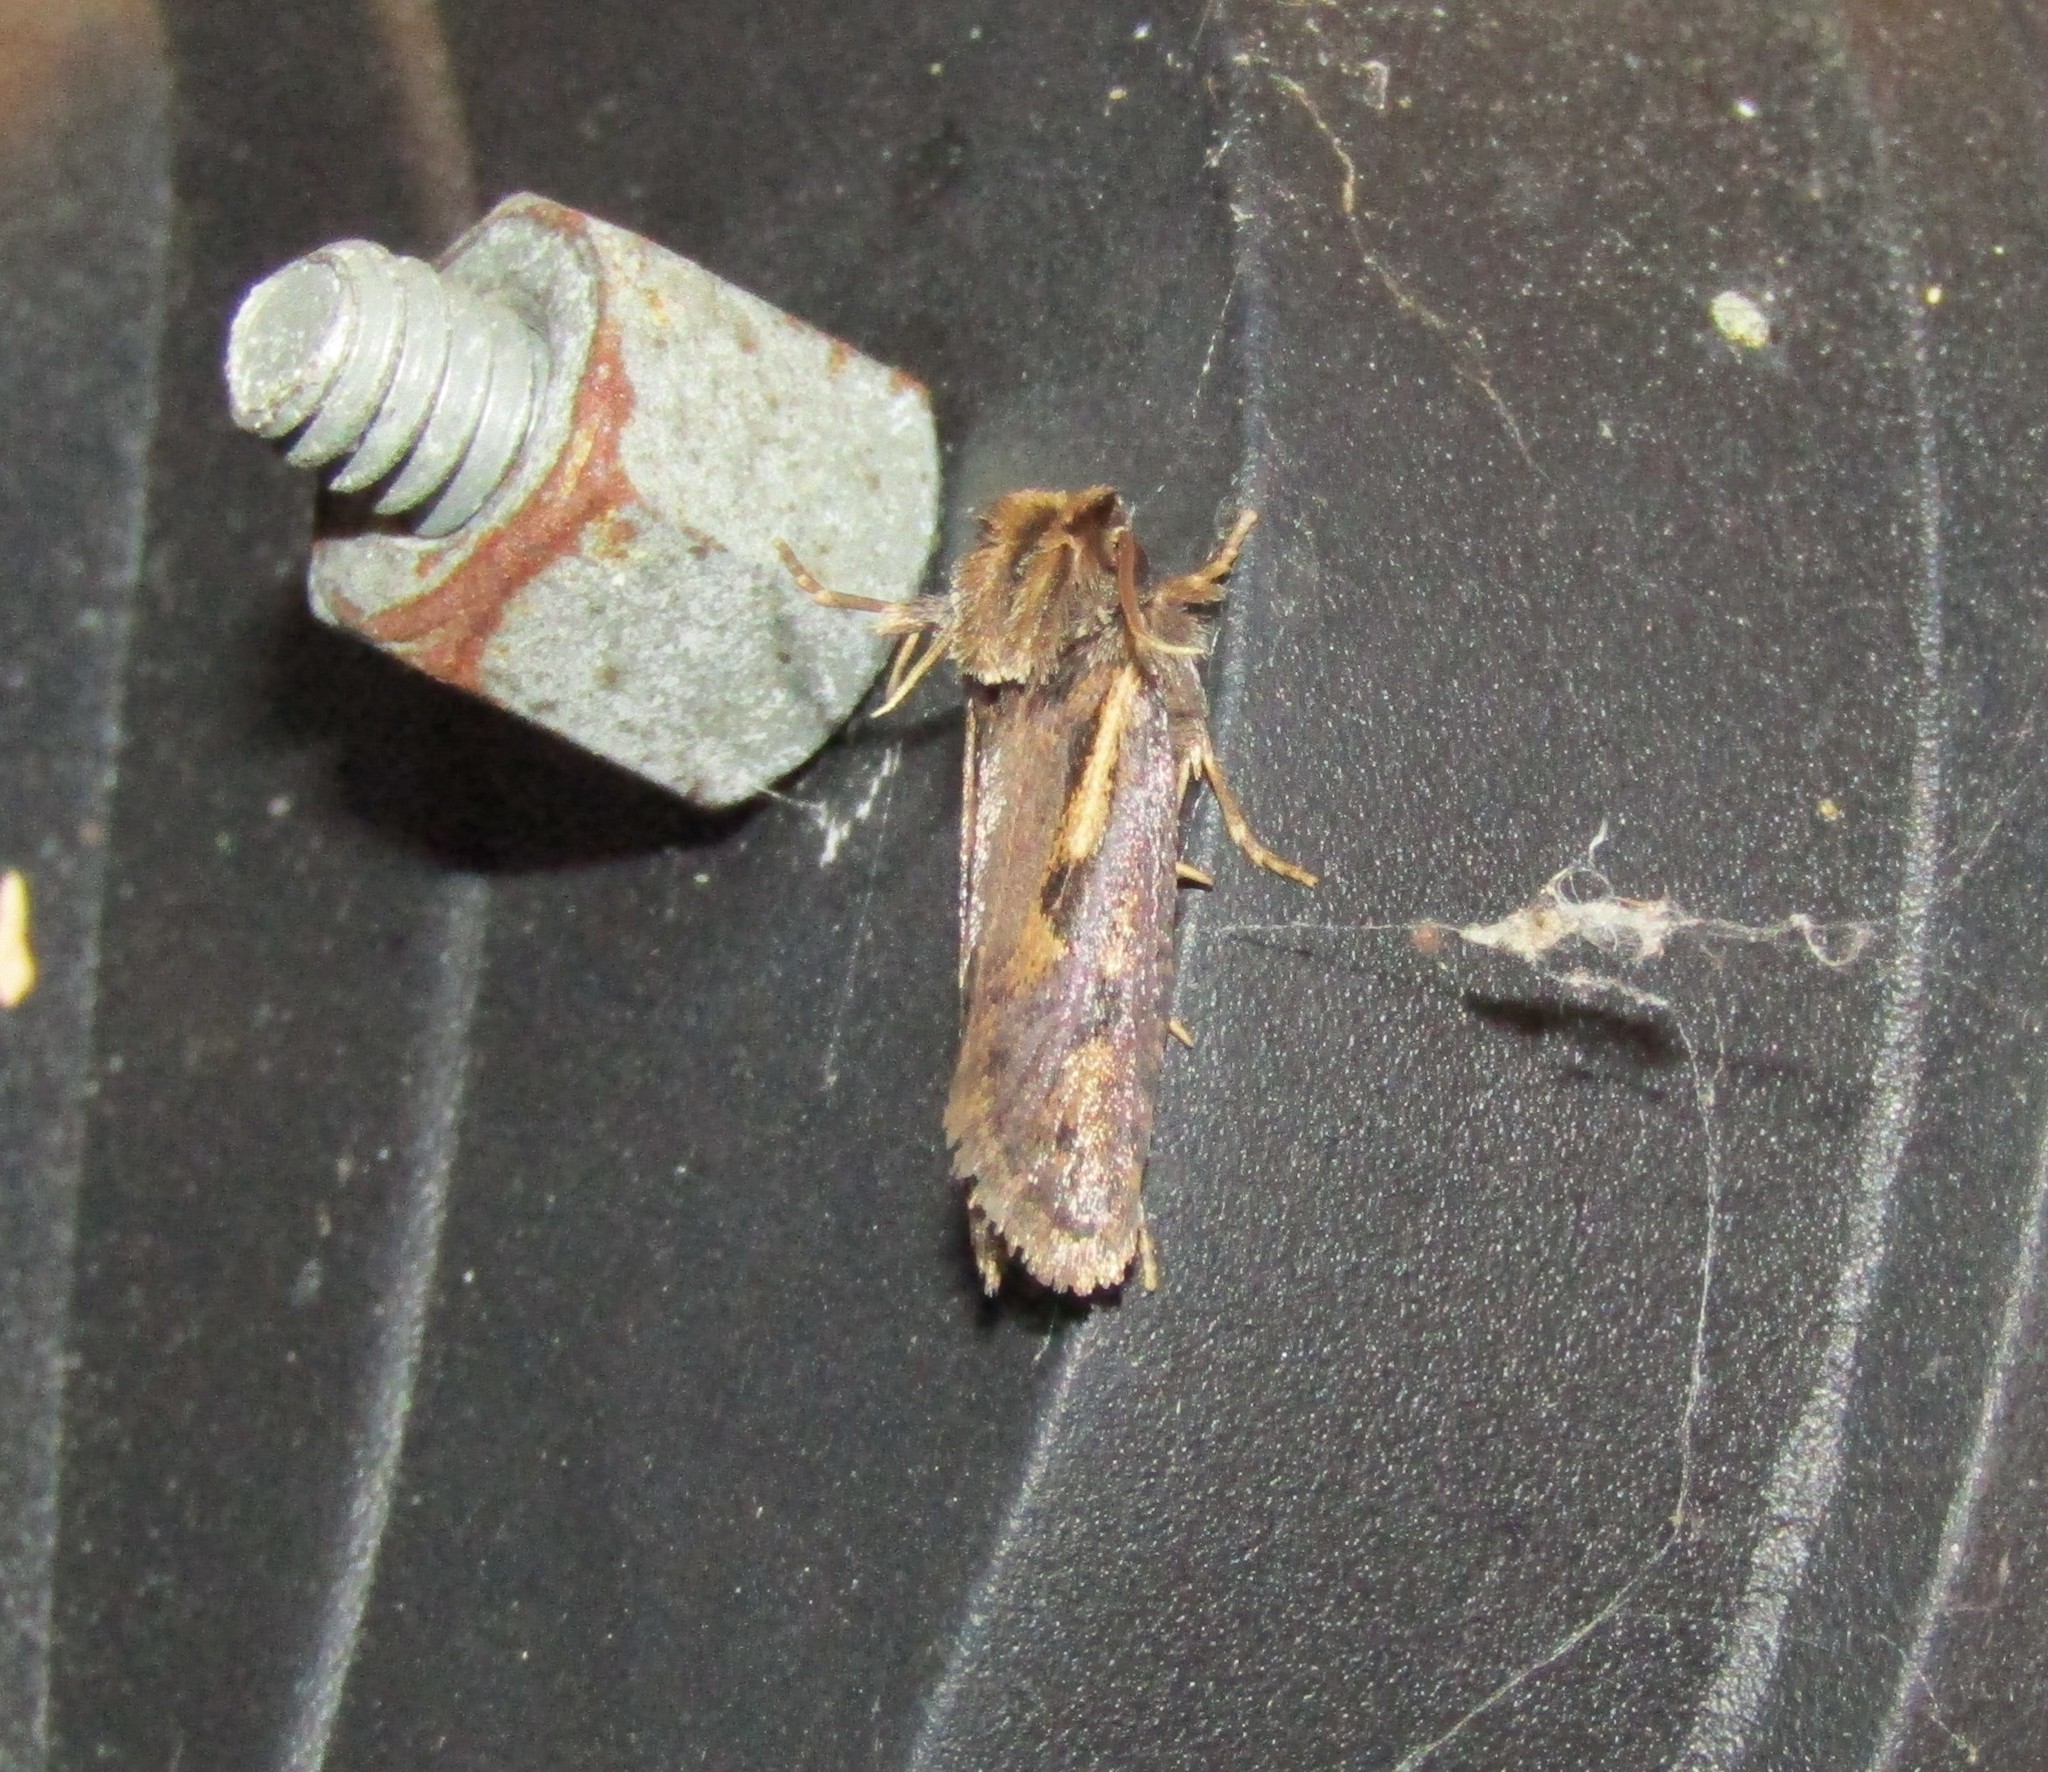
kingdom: Animalia
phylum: Arthropoda
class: Insecta
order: Lepidoptera
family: Tineidae
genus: Acrolophus
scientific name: Acrolophus popeanella
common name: Clemens' grass tubeworm moth
